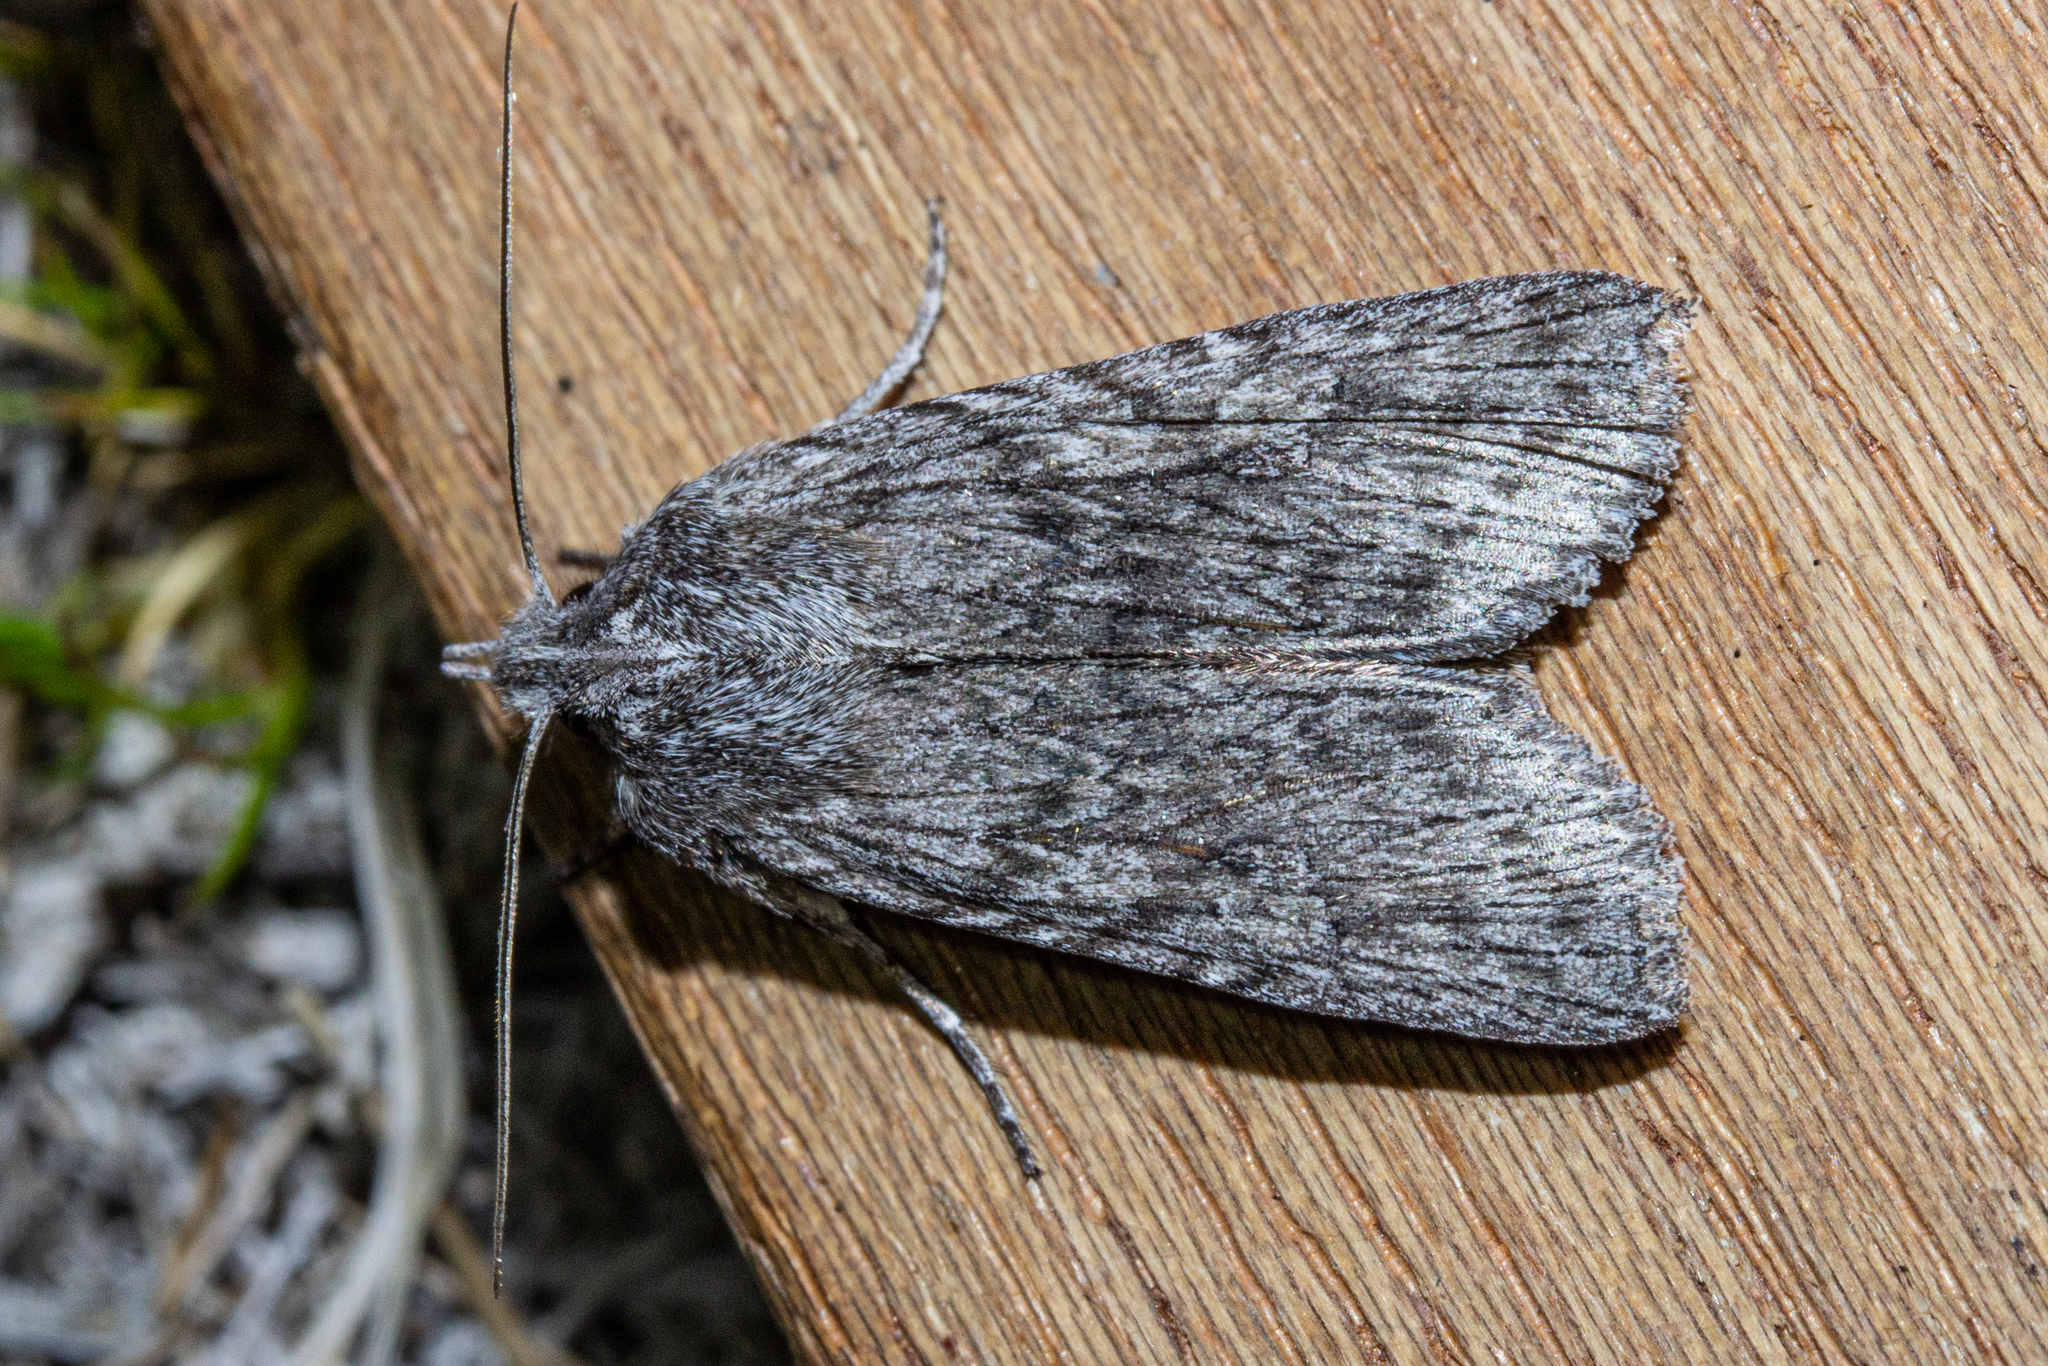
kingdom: Animalia
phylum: Arthropoda
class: Insecta
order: Lepidoptera
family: Noctuidae
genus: Physetica
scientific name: Physetica phricias
